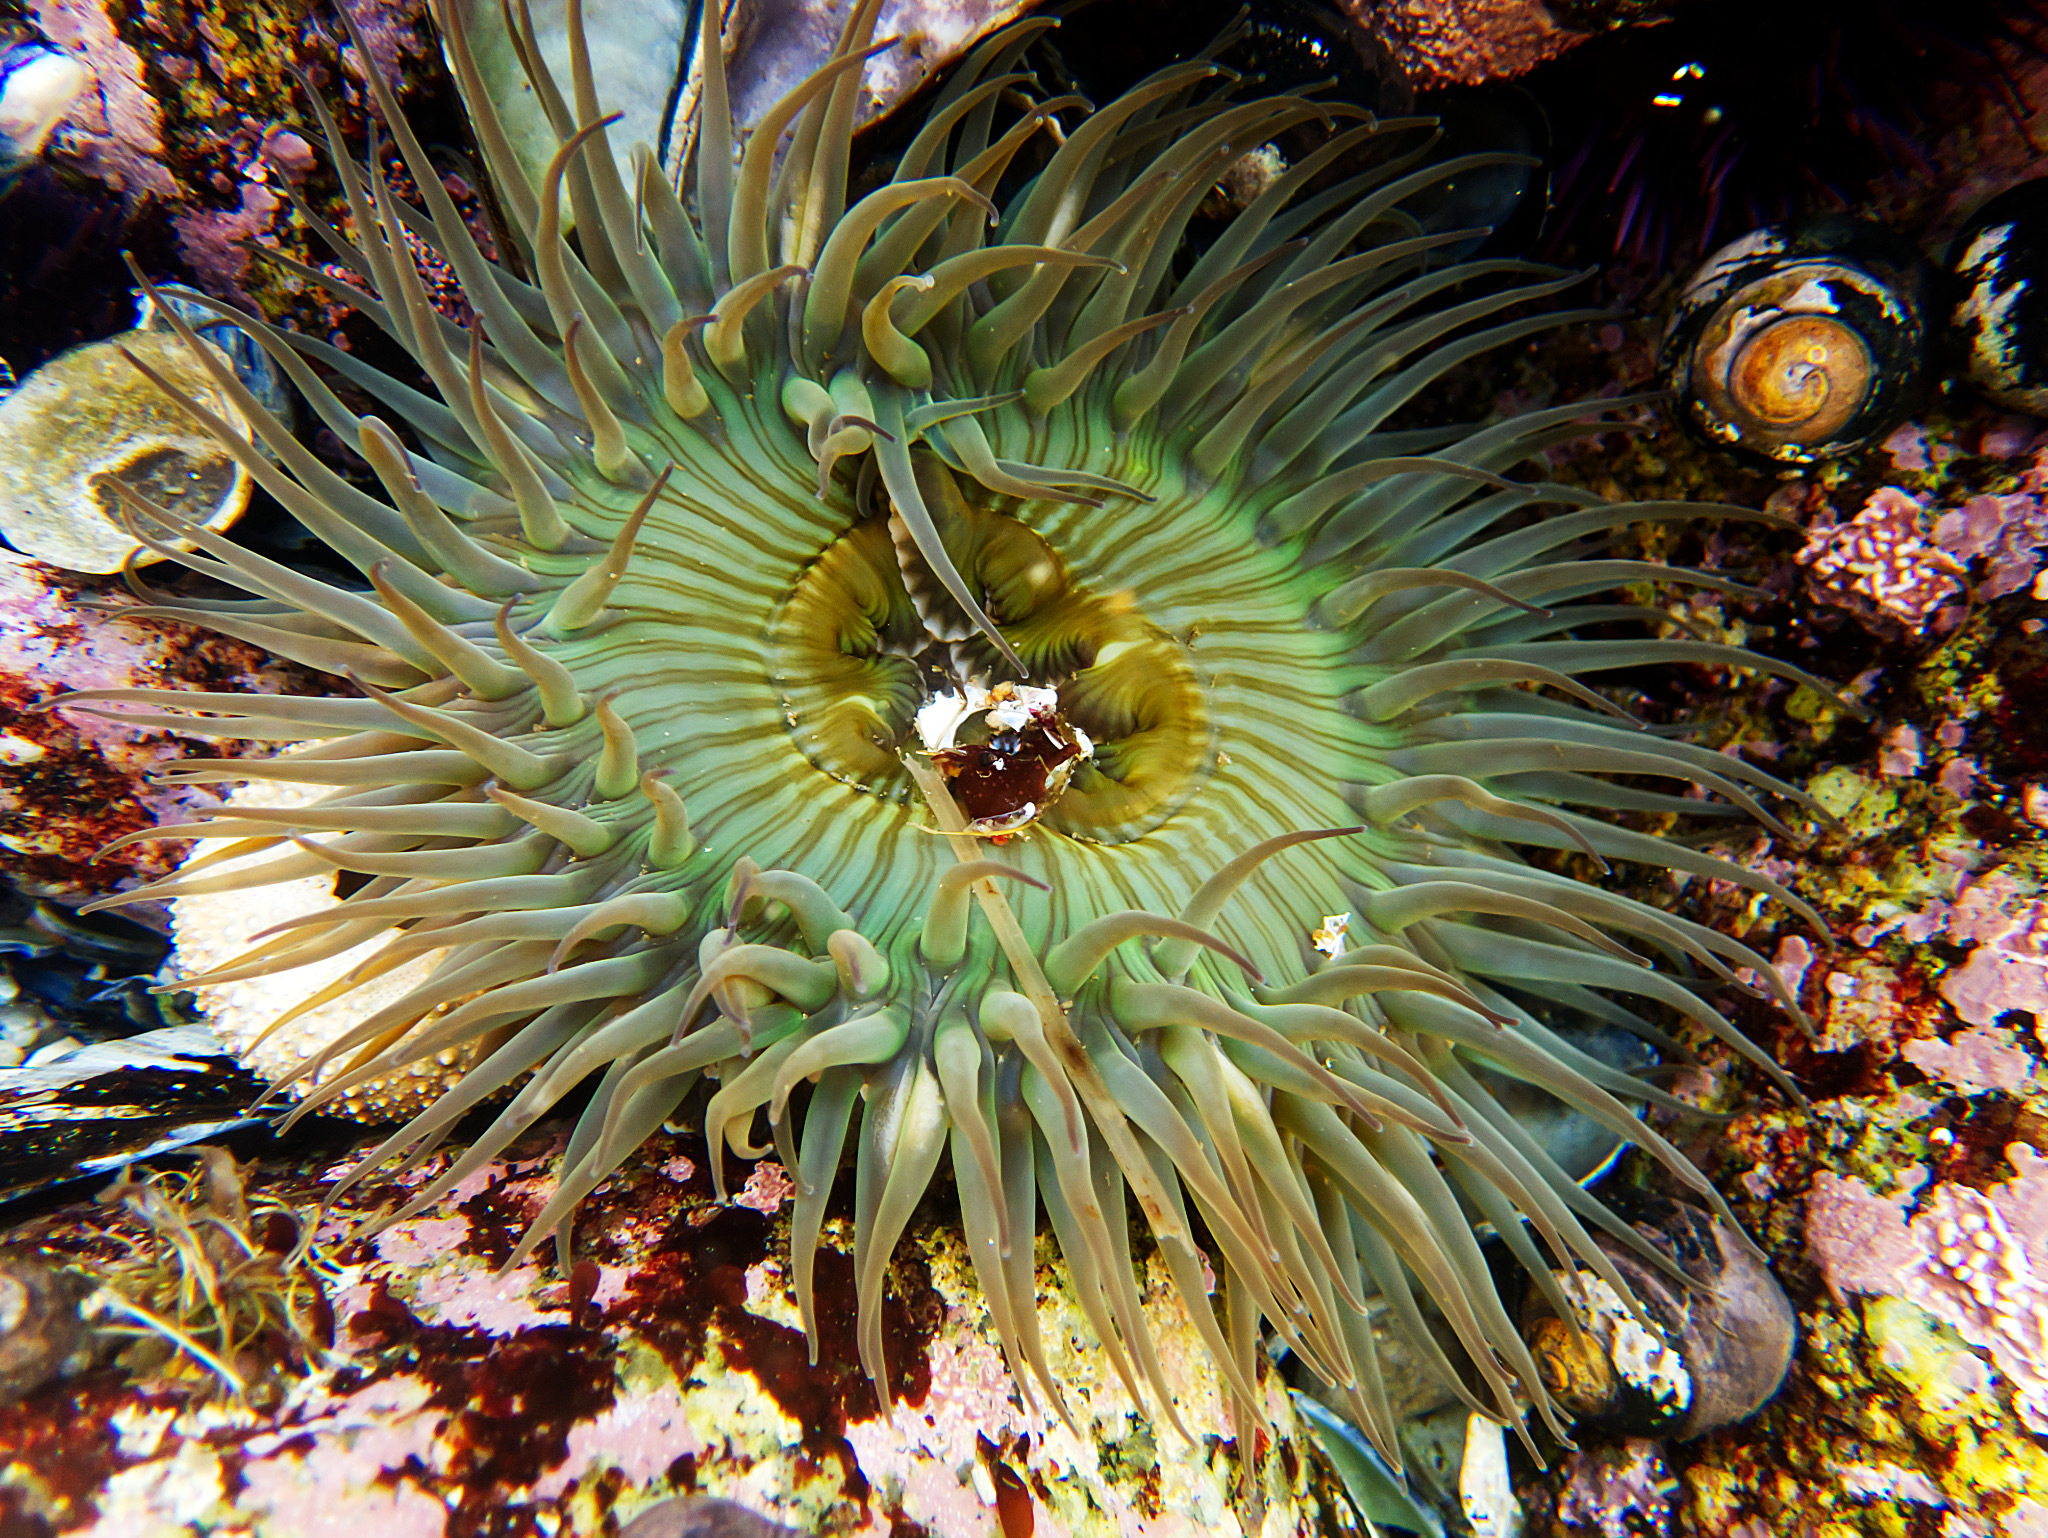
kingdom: Animalia
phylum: Cnidaria
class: Anthozoa
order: Actiniaria
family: Actiniidae
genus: Anthopleura
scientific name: Anthopleura sola
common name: Sun anemone
